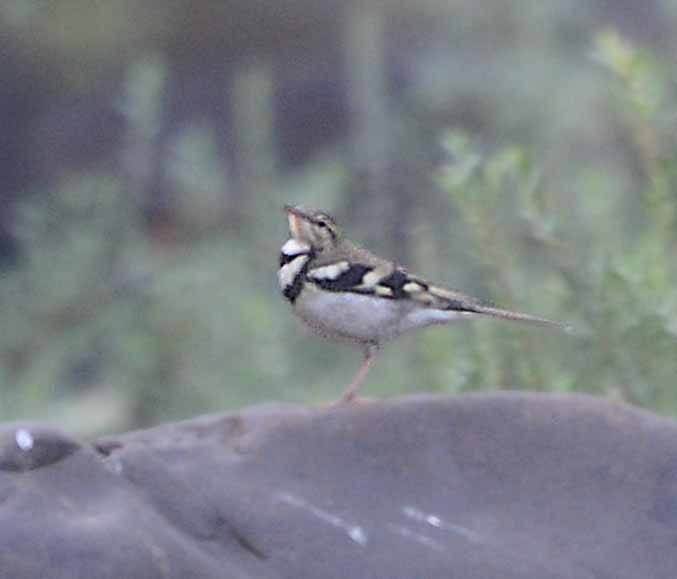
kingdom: Animalia
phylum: Chordata
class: Aves
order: Passeriformes
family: Motacillidae
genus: Dendronanthus
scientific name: Dendronanthus indicus
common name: Forest wagtail
